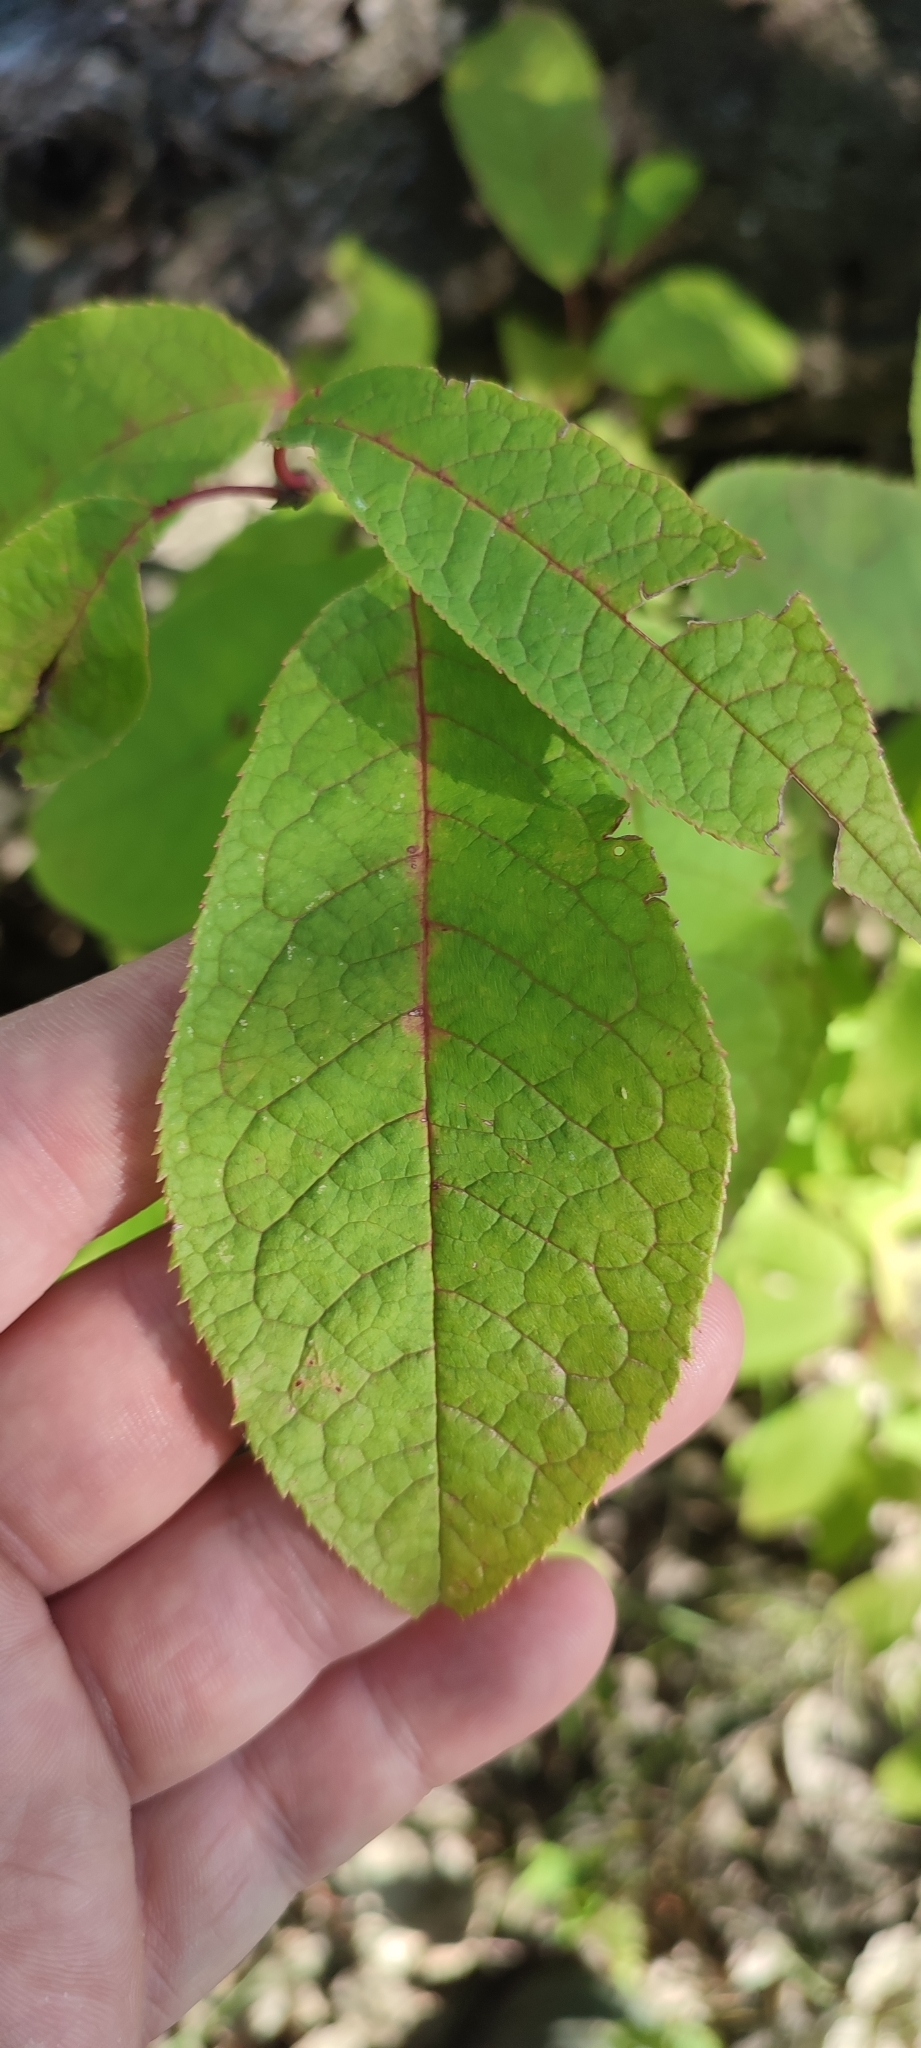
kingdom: Plantae
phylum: Tracheophyta
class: Magnoliopsida
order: Rosales
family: Rosaceae
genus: Prunus
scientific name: Prunus padus
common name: Bird cherry
